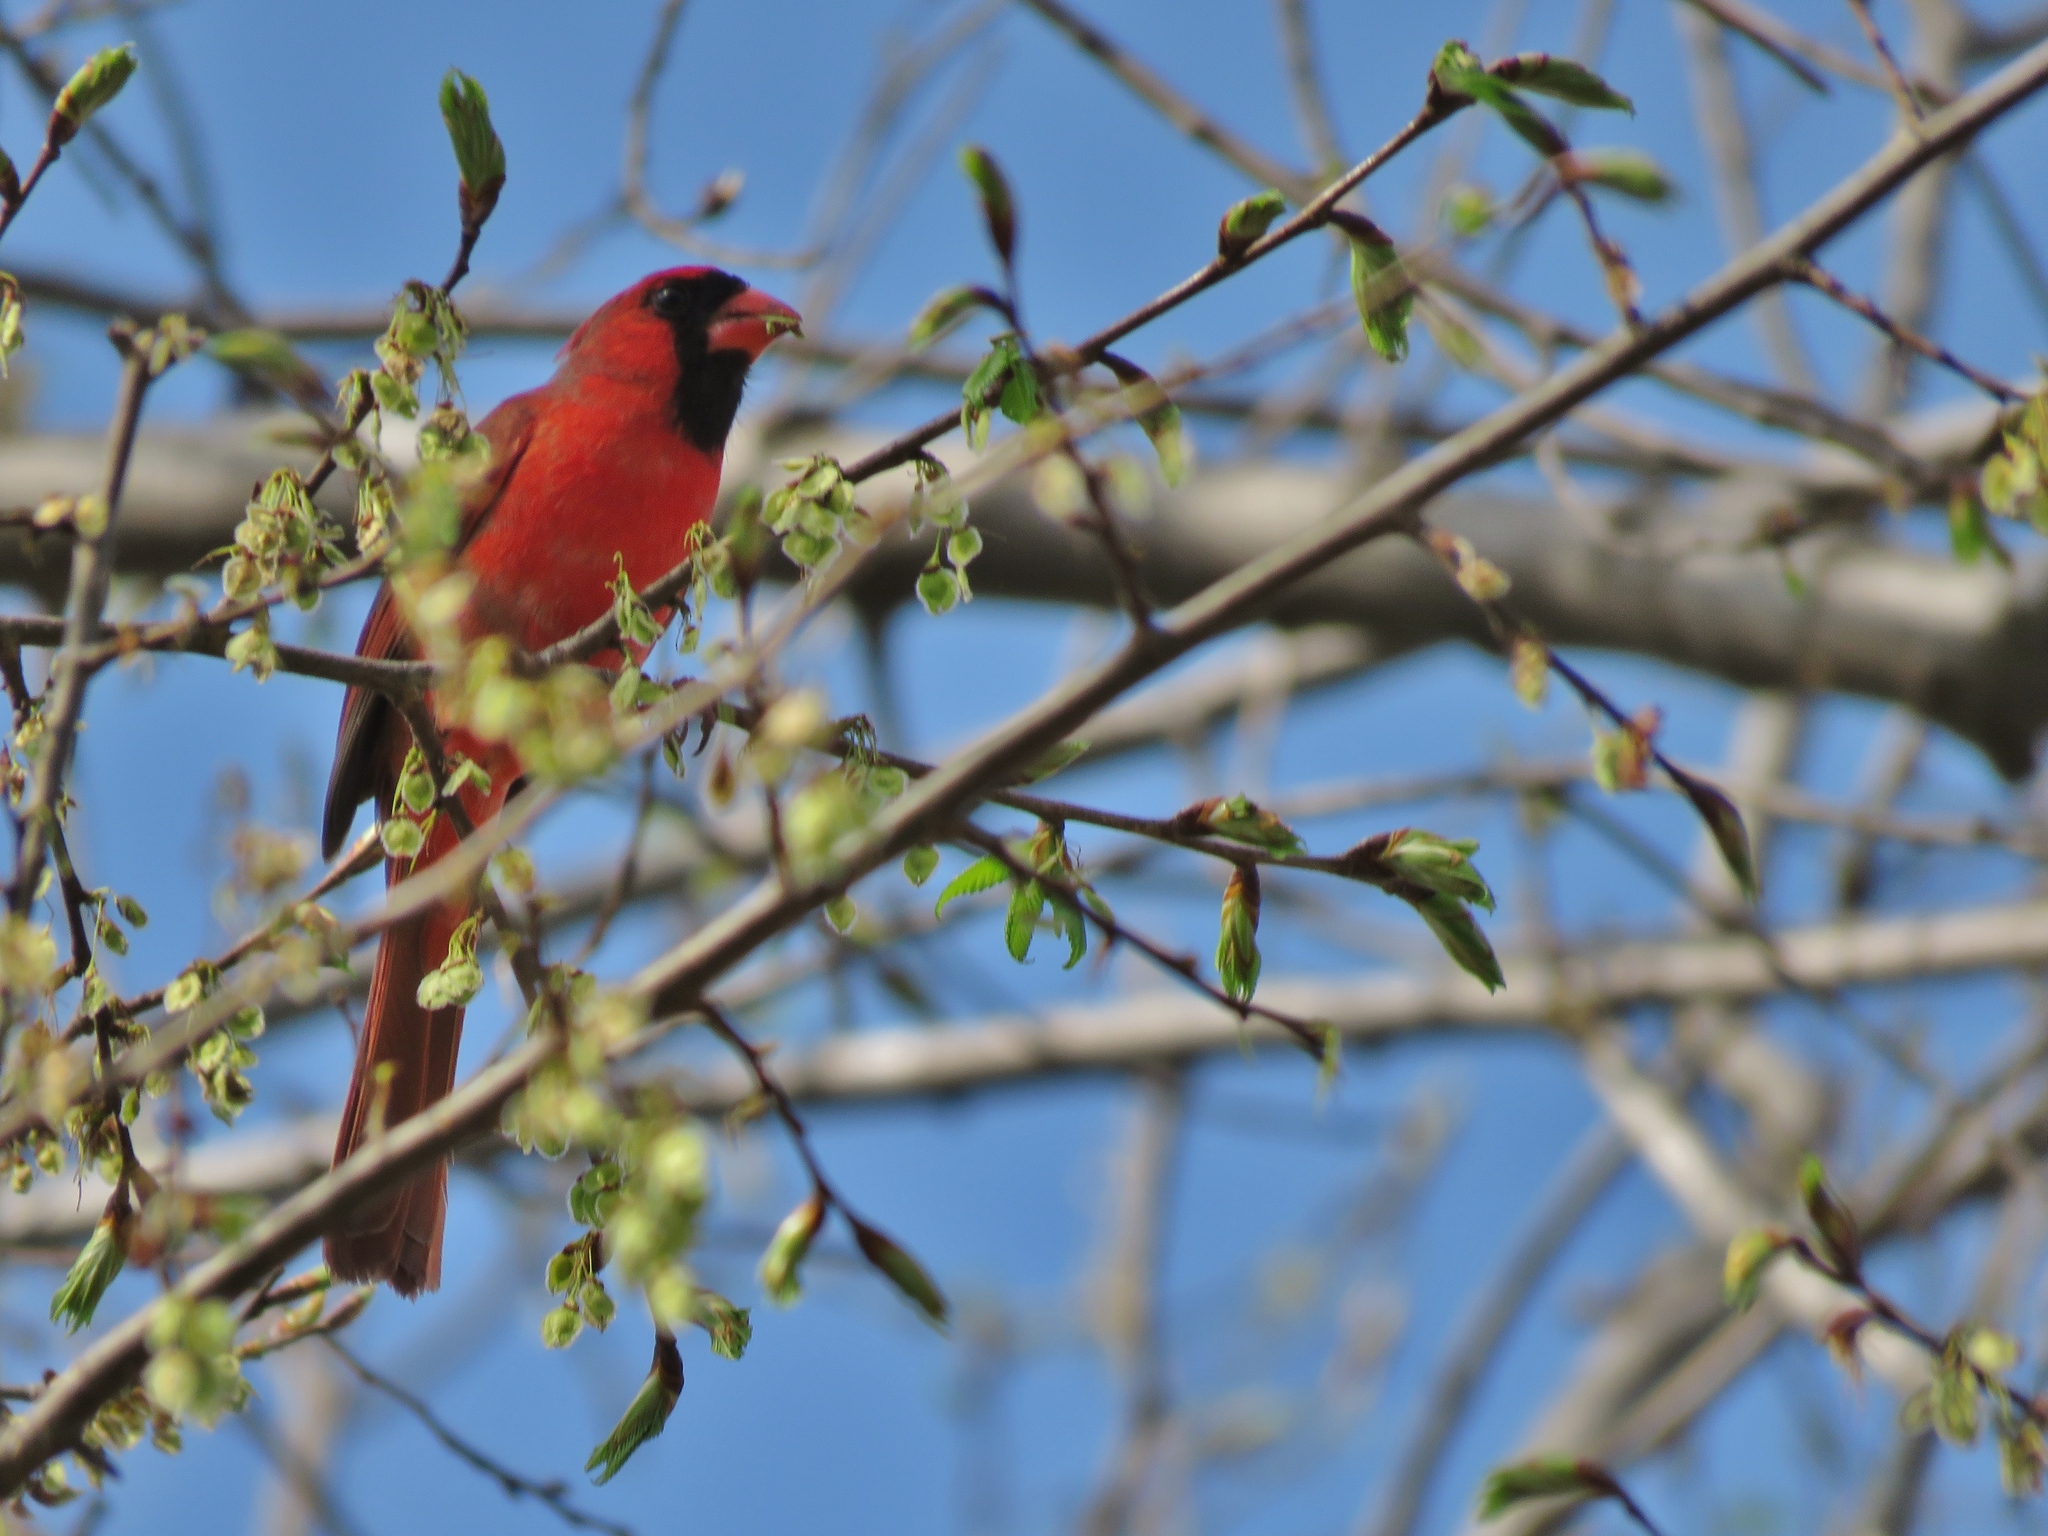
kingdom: Animalia
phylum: Chordata
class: Aves
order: Passeriformes
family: Cardinalidae
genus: Cardinalis
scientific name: Cardinalis cardinalis
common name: Northern cardinal
